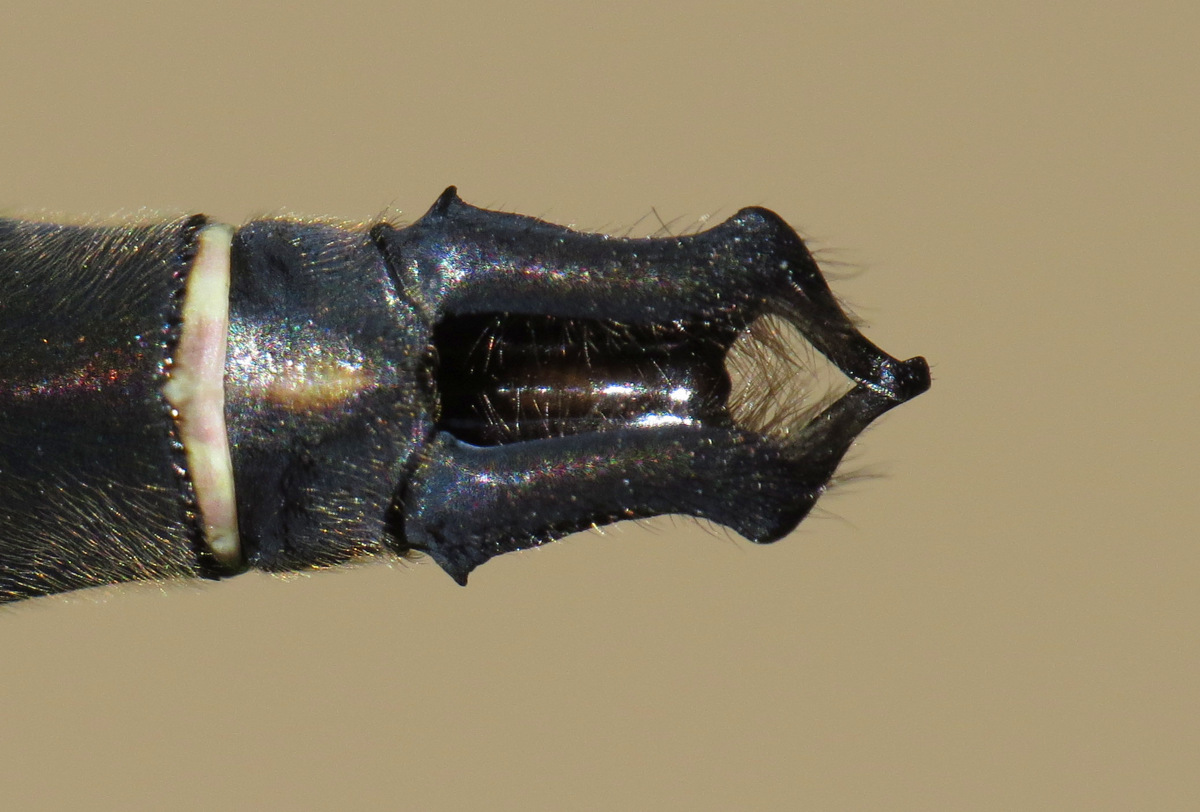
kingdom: Animalia
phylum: Arthropoda
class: Insecta
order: Odonata
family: Corduliidae
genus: Somatochlora
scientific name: Somatochlora cingulata
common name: Lake emerald
